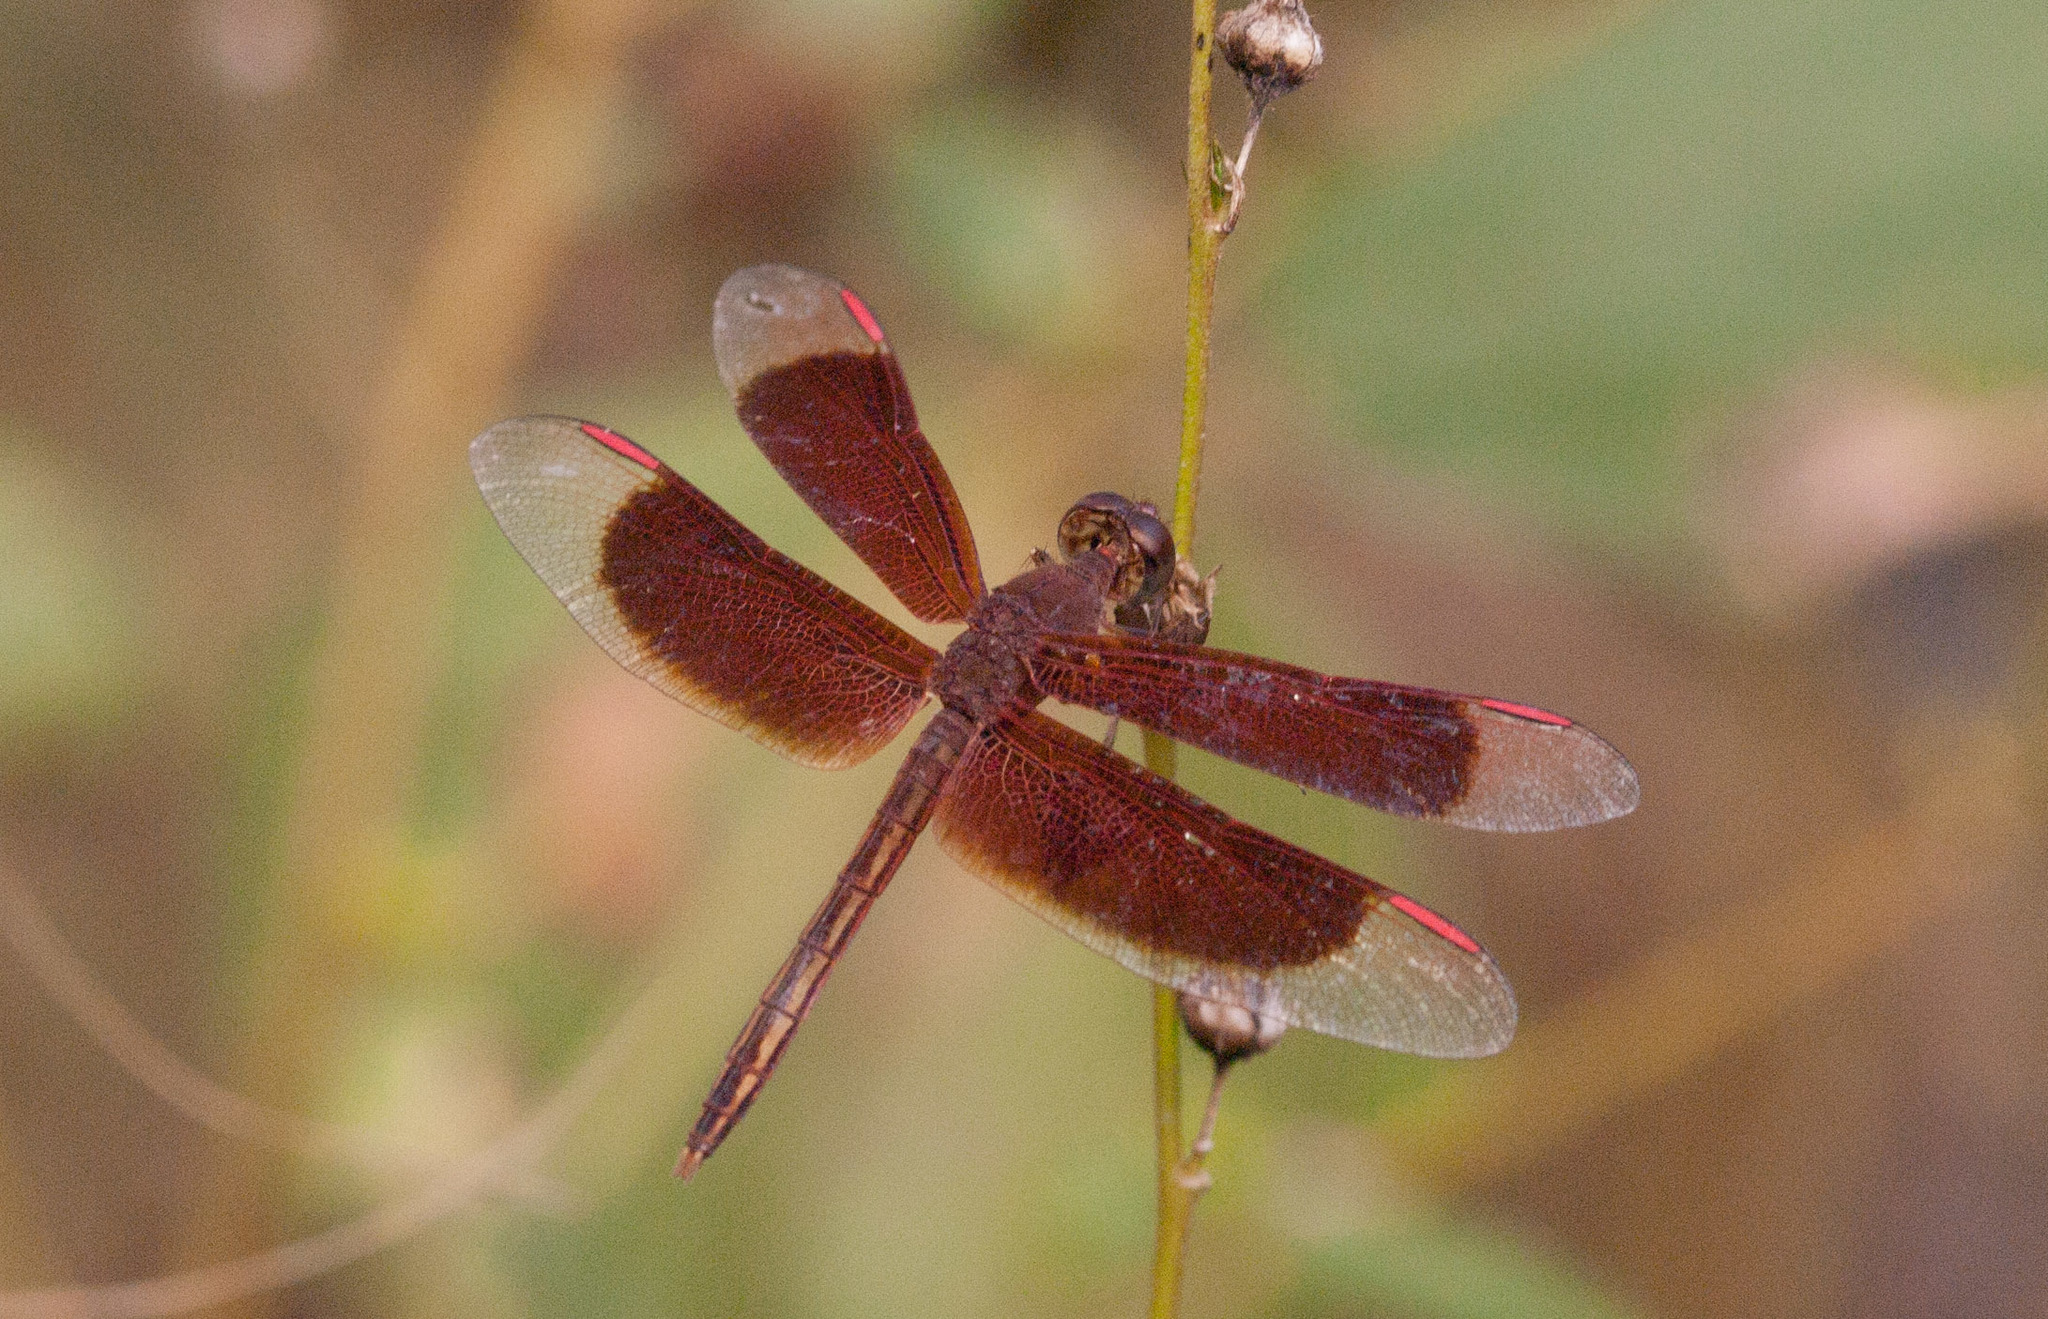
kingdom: Animalia
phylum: Arthropoda
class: Insecta
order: Odonata
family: Libellulidae
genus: Neurothemis
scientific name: Neurothemis stigmatizans
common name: Painted grasshawk
